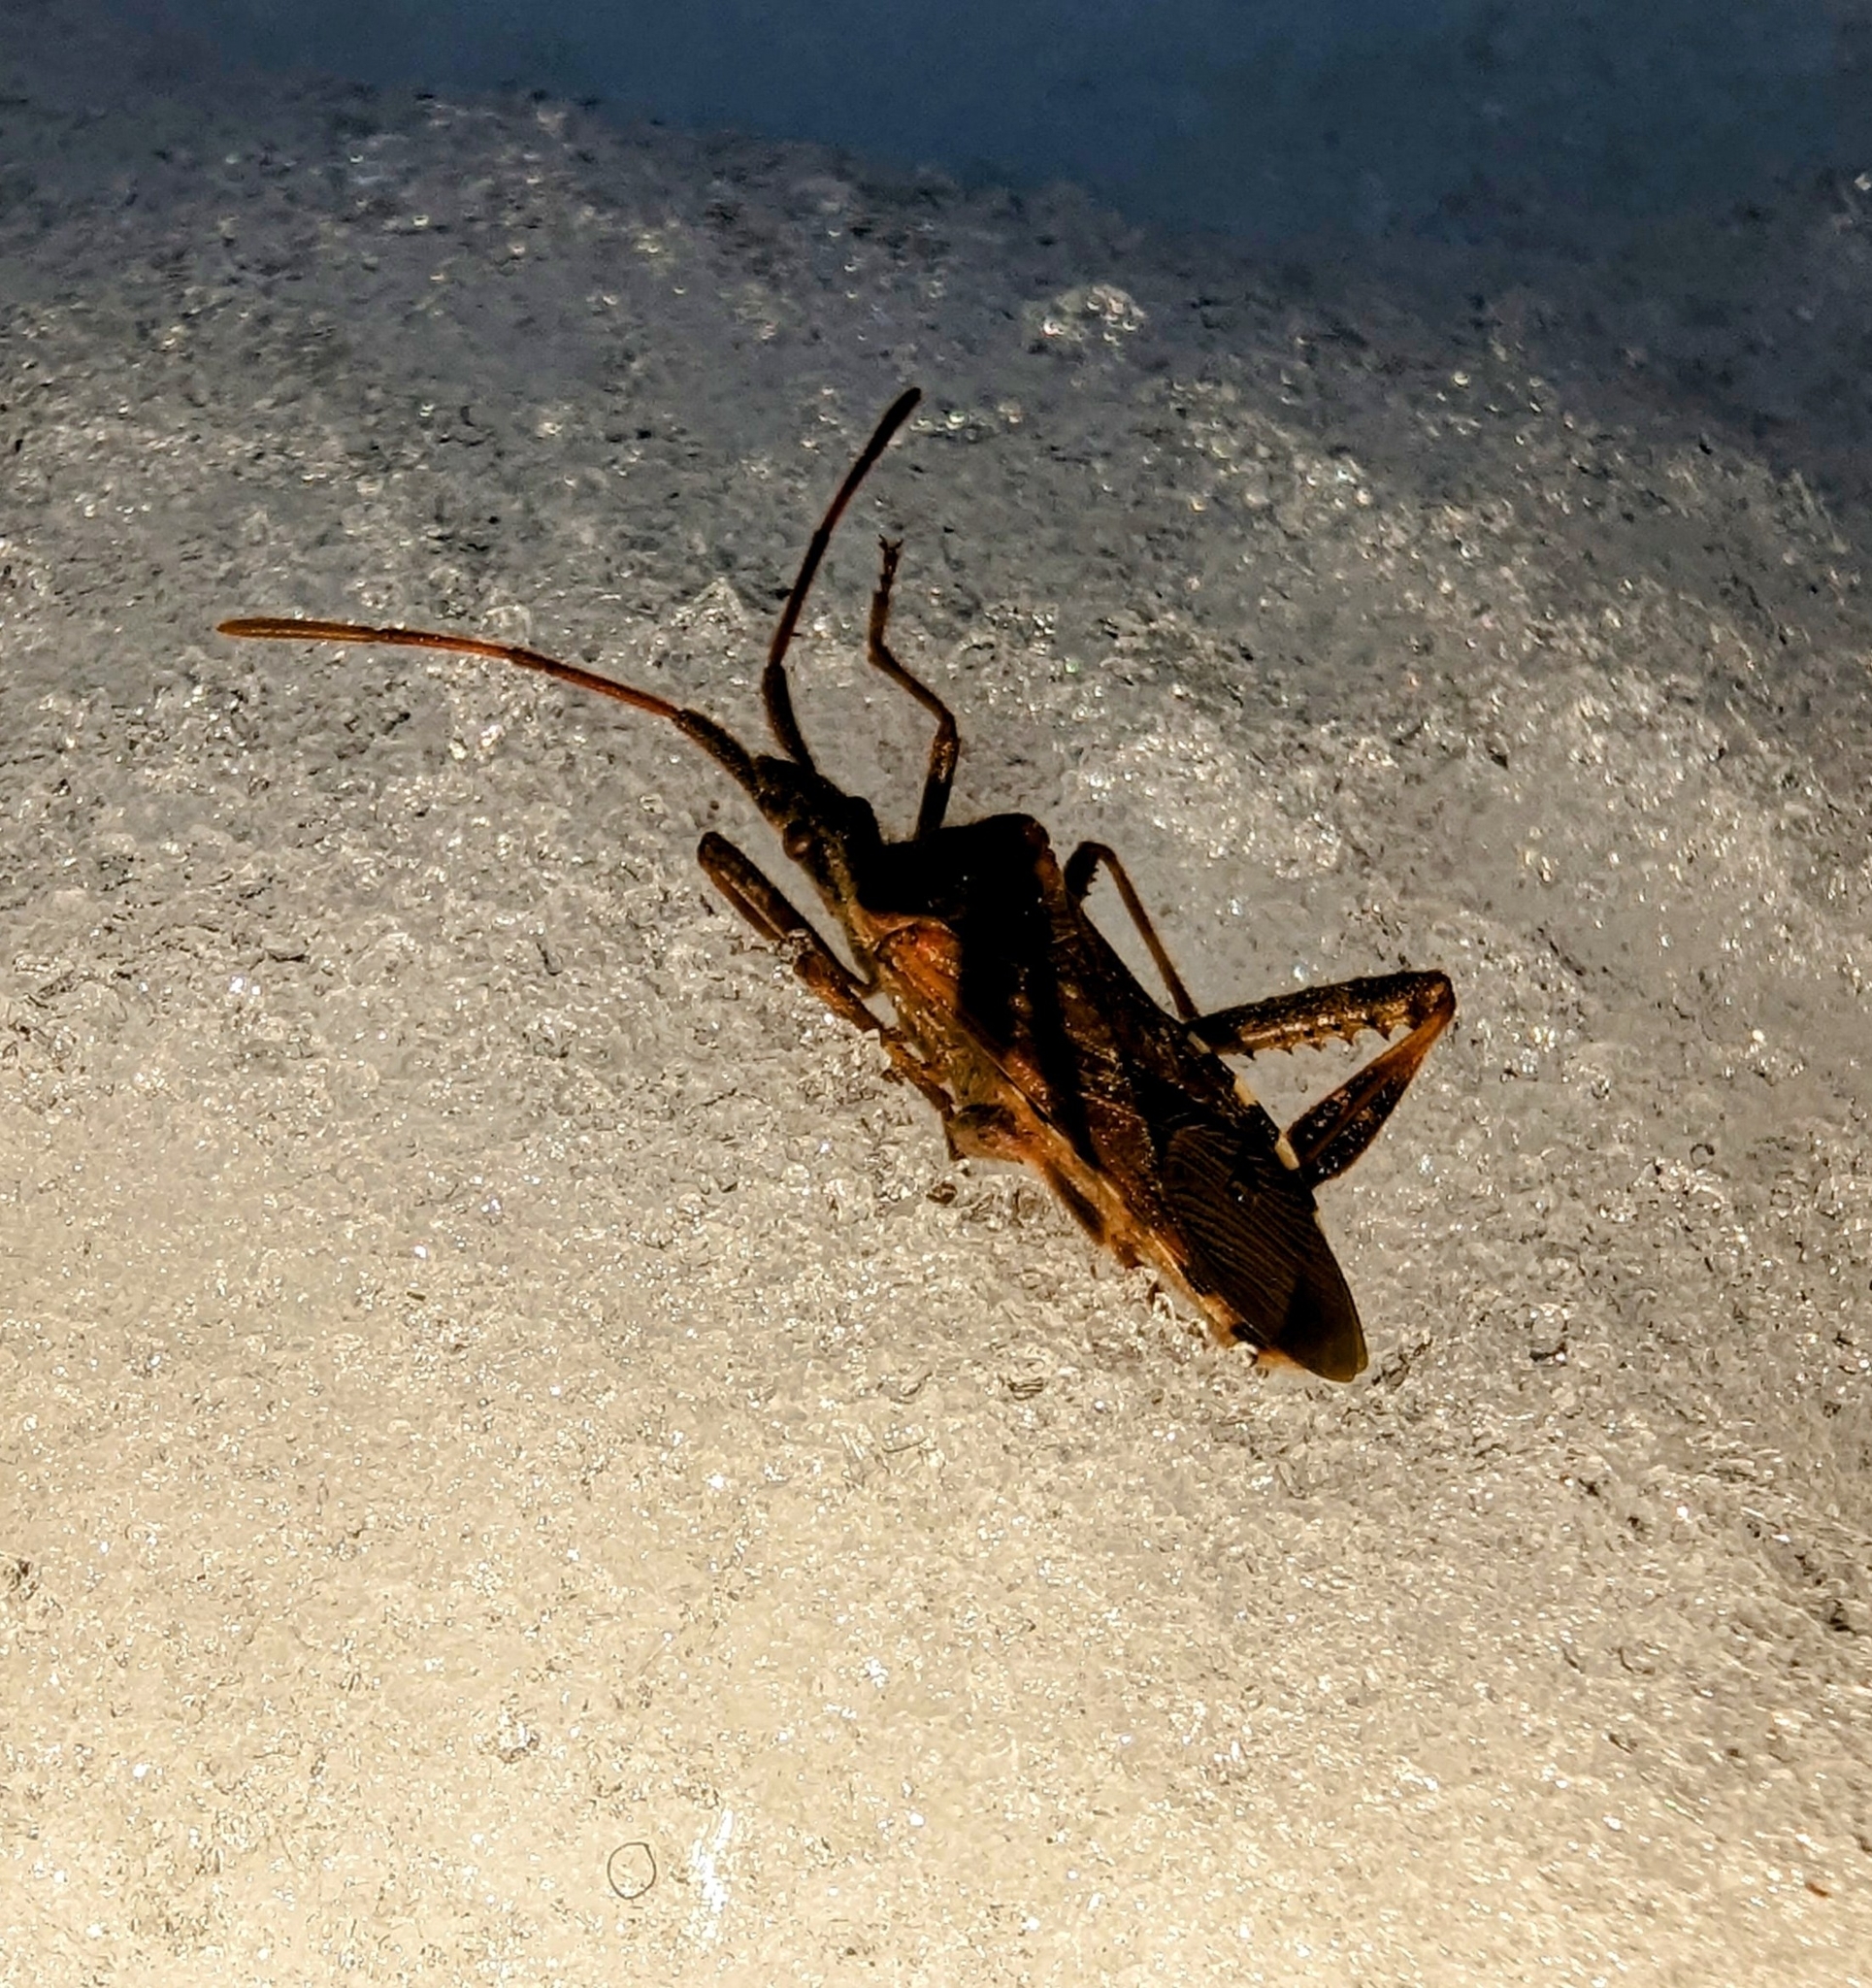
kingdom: Animalia
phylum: Arthropoda
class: Insecta
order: Hemiptera
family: Coreidae
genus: Leptoglossus
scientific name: Leptoglossus occidentalis
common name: Western conifer-seed bug
